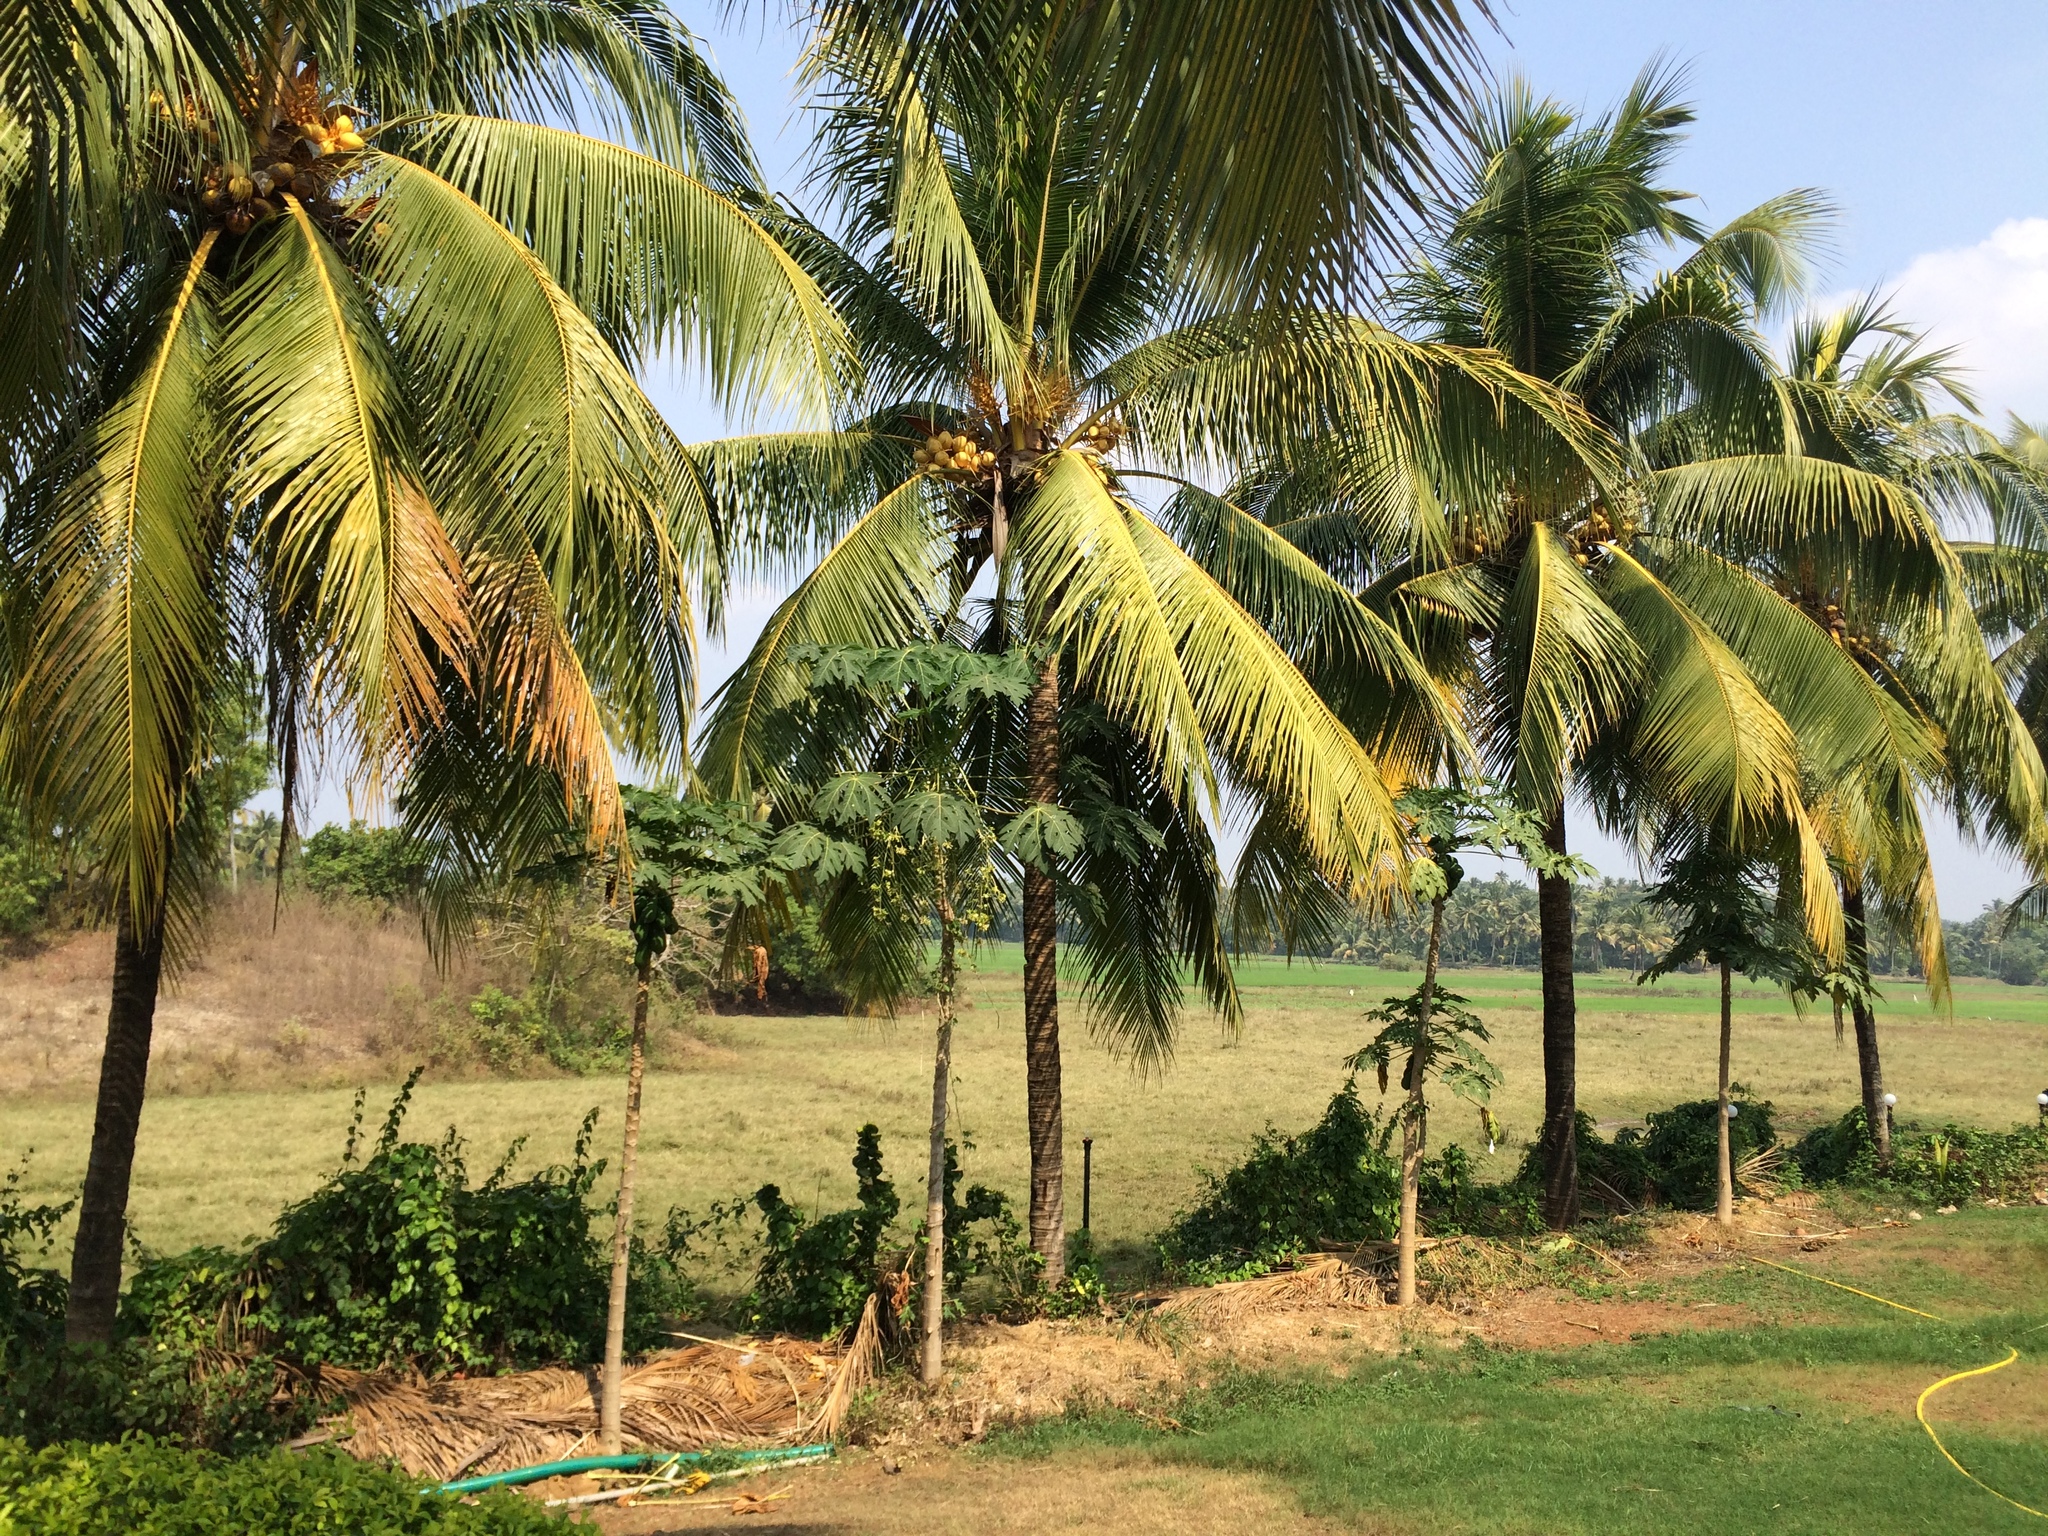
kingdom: Plantae
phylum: Tracheophyta
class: Liliopsida
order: Arecales
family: Arecaceae
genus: Cocos
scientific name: Cocos nucifera
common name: Coconut palm
